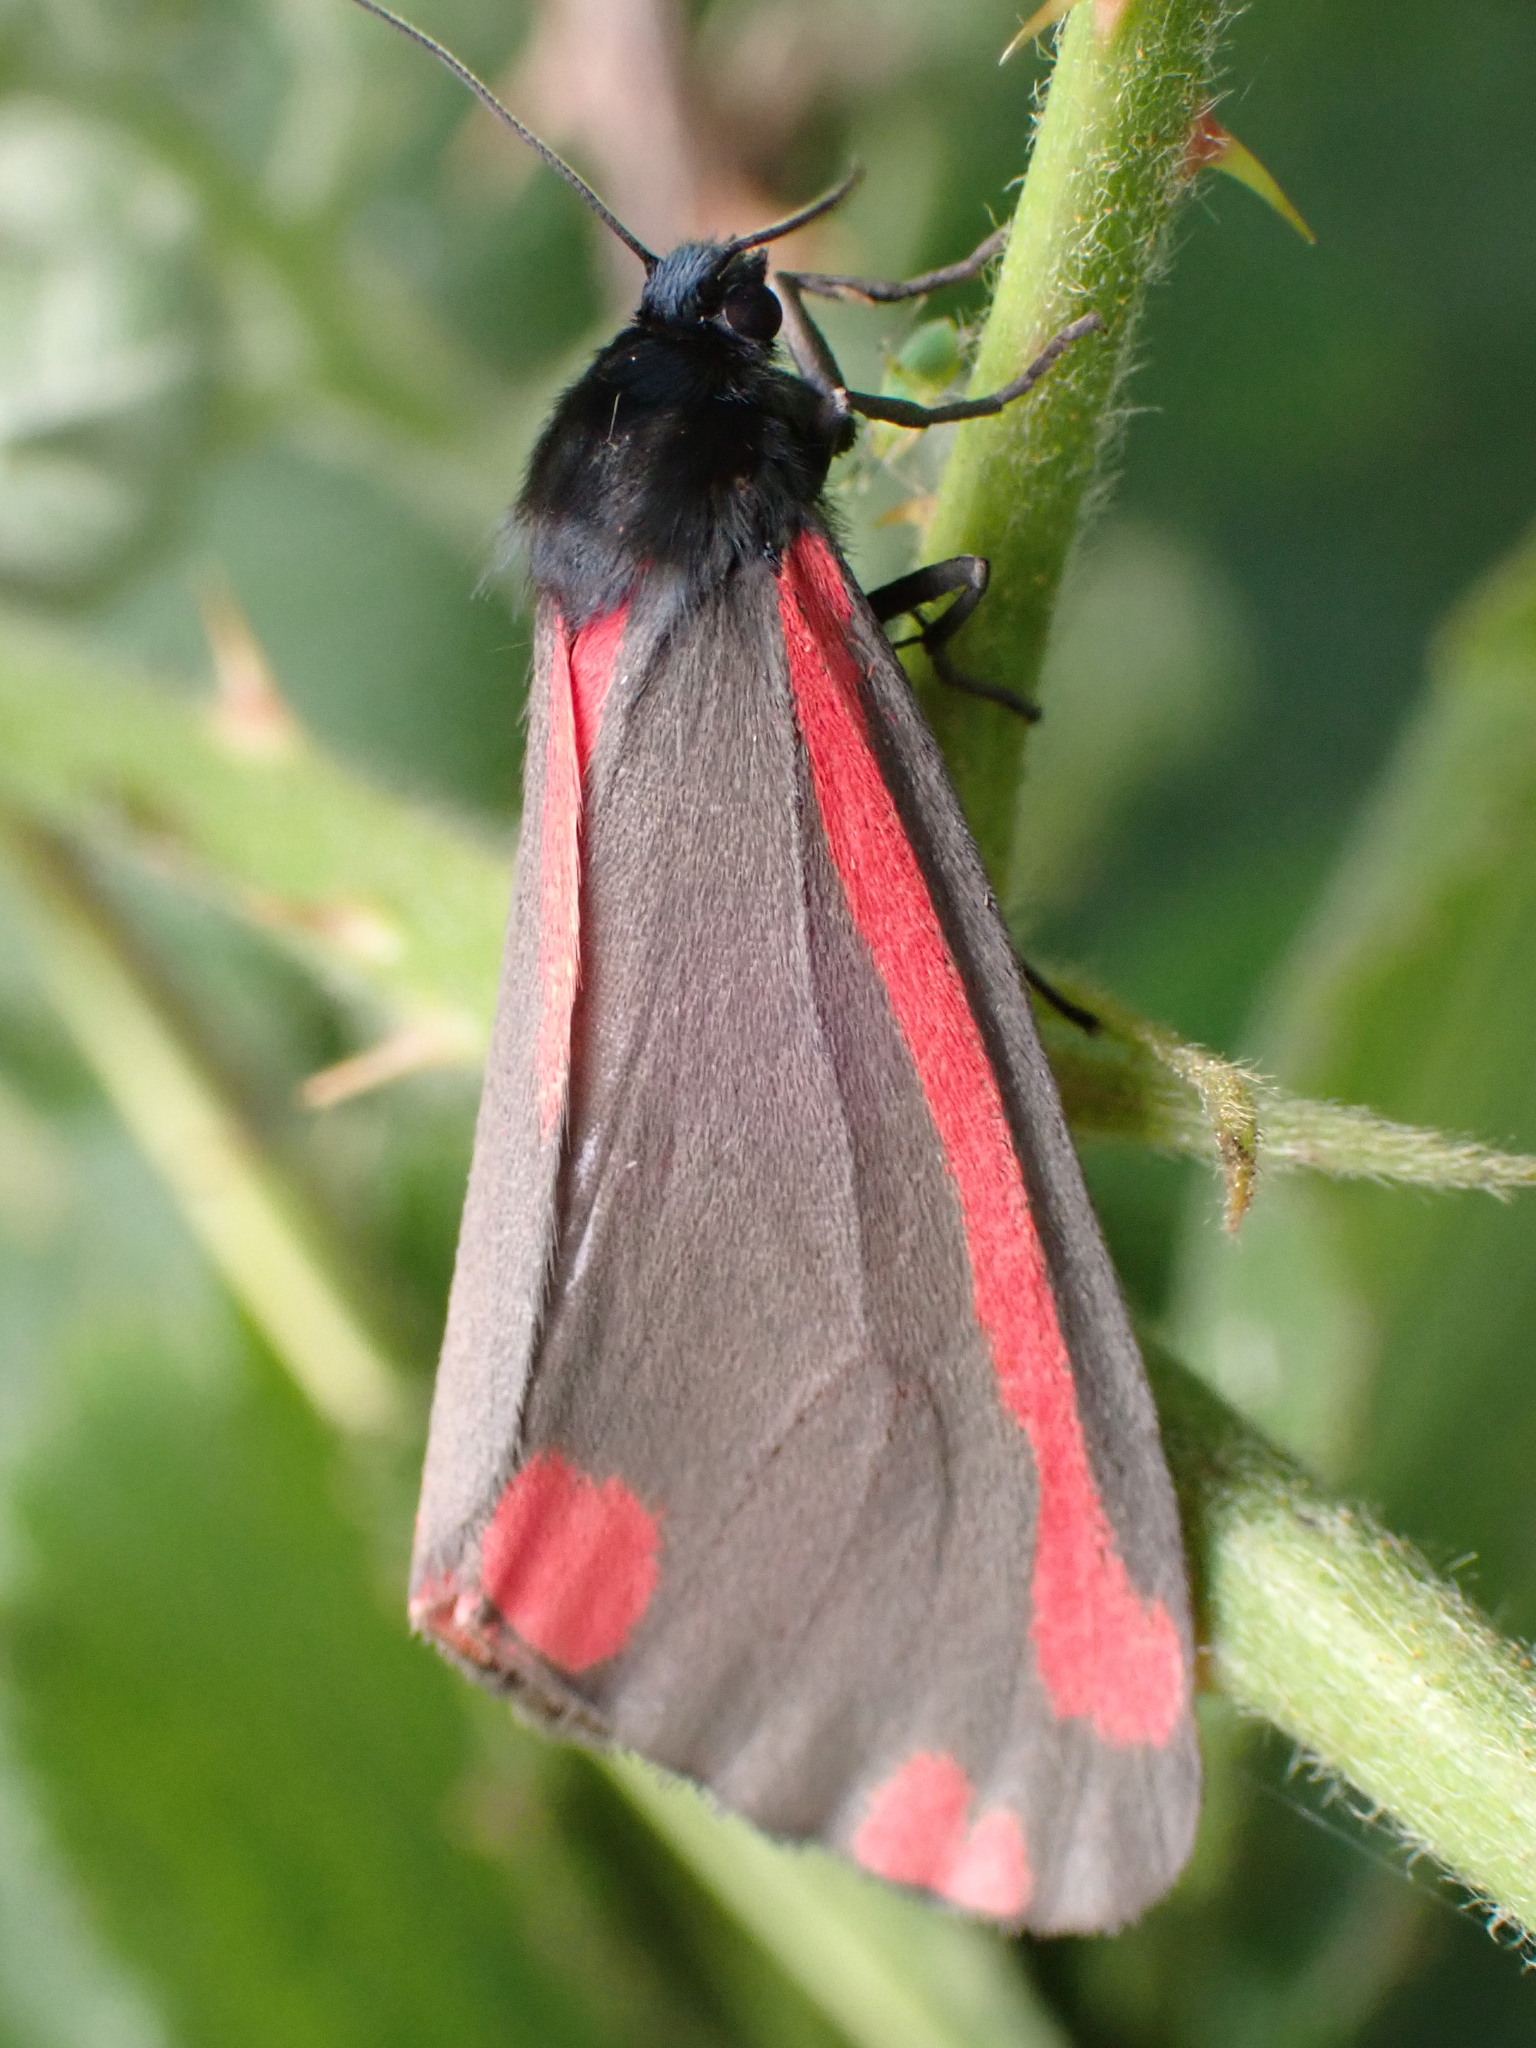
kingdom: Animalia
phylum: Arthropoda
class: Insecta
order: Lepidoptera
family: Erebidae
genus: Tyria
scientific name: Tyria jacobaeae
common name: Cinnabar
